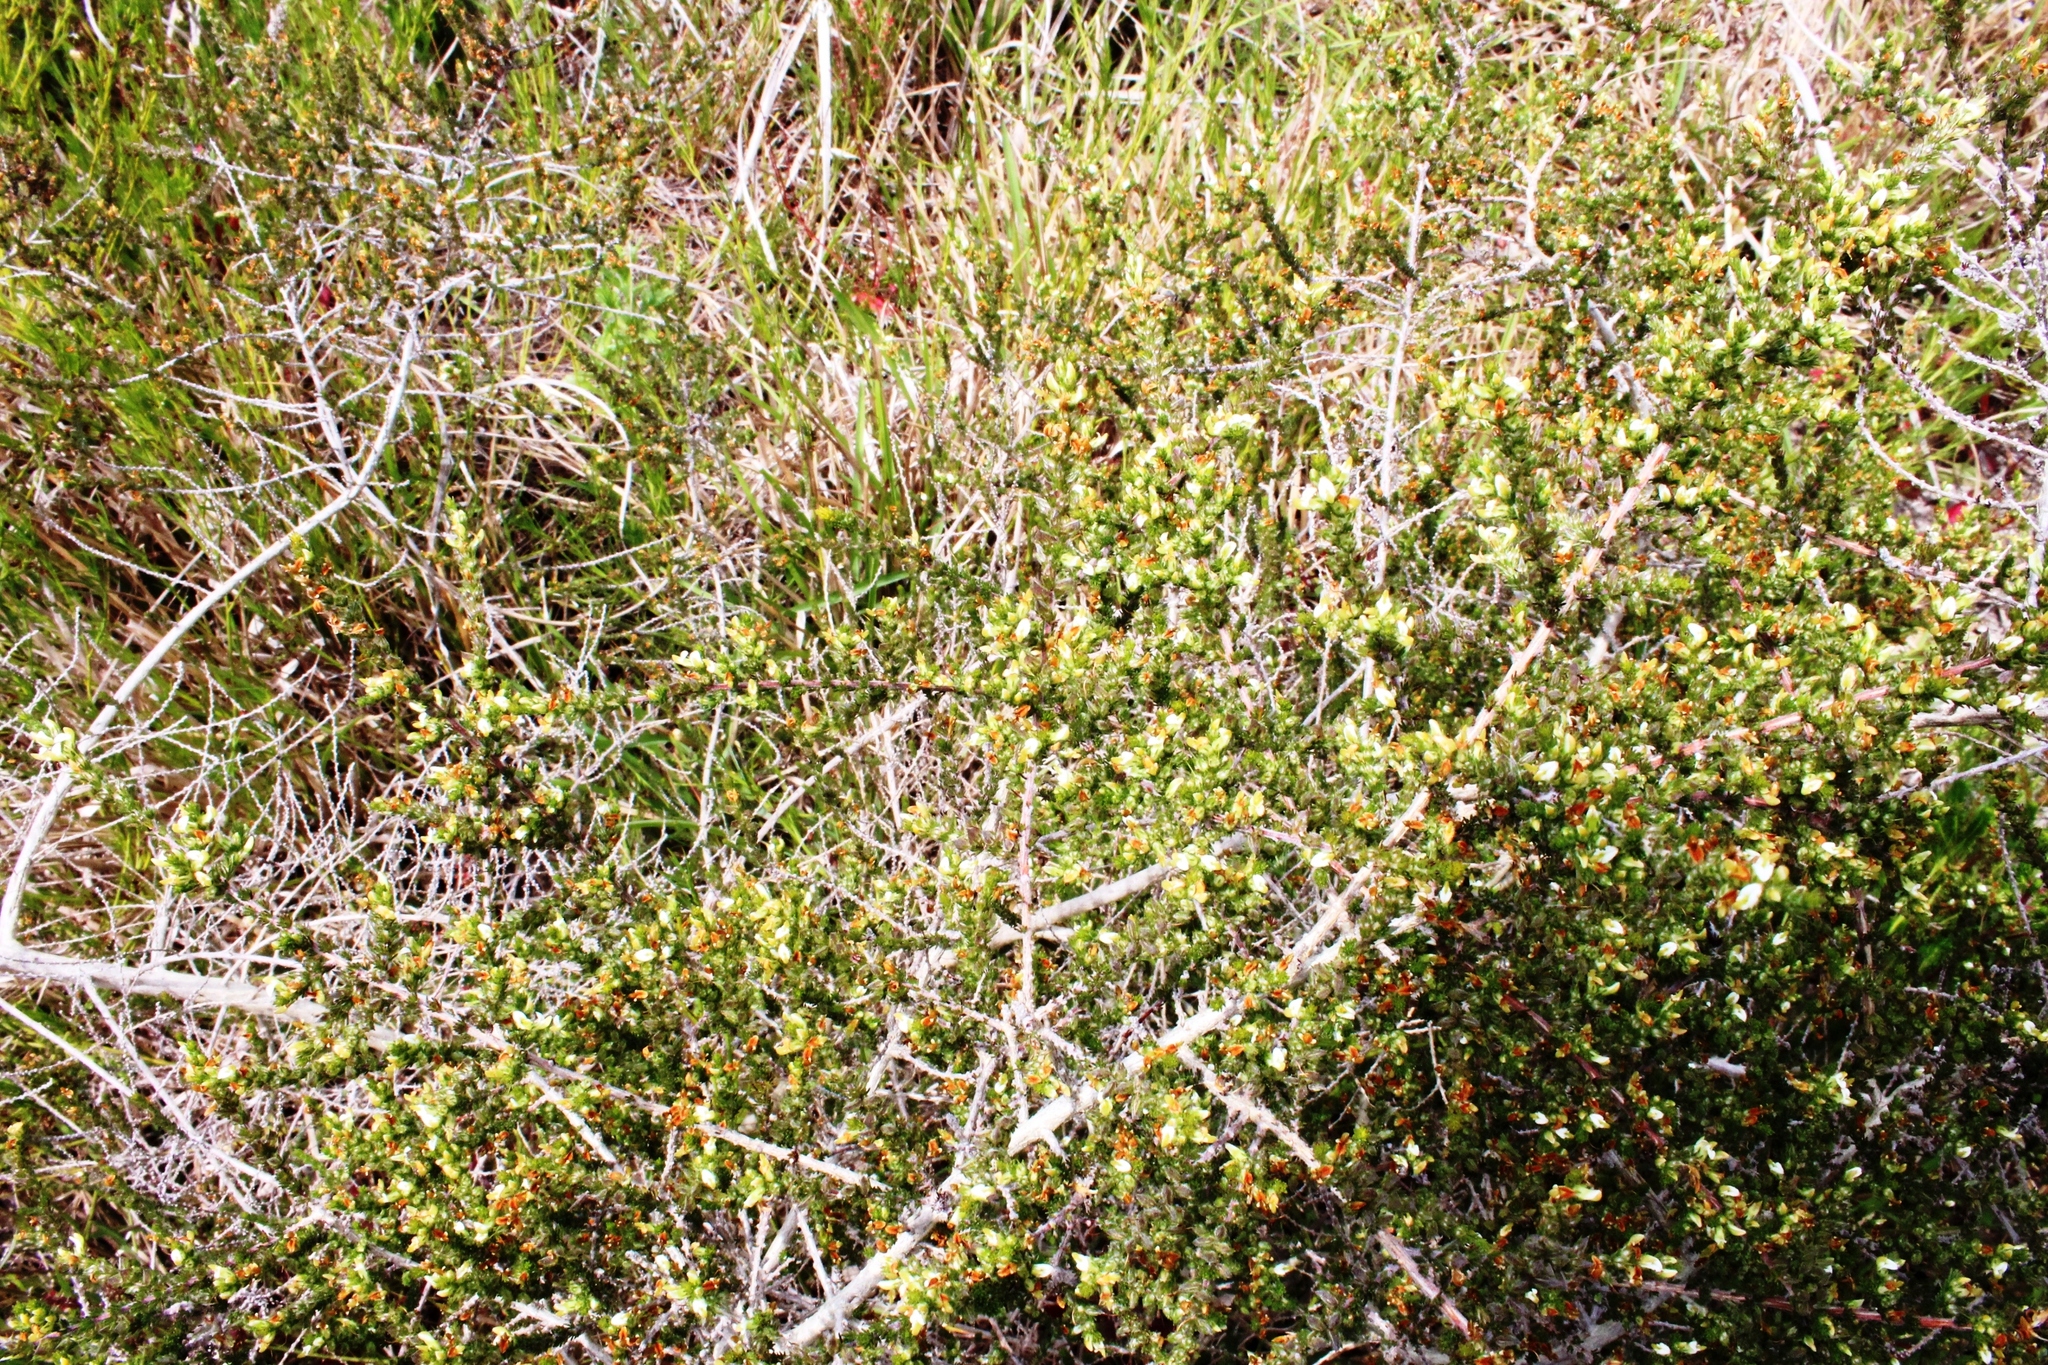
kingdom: Plantae
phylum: Tracheophyta
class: Magnoliopsida
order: Fabales
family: Fabaceae
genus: Aspalathus
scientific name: Aspalathus hispida
